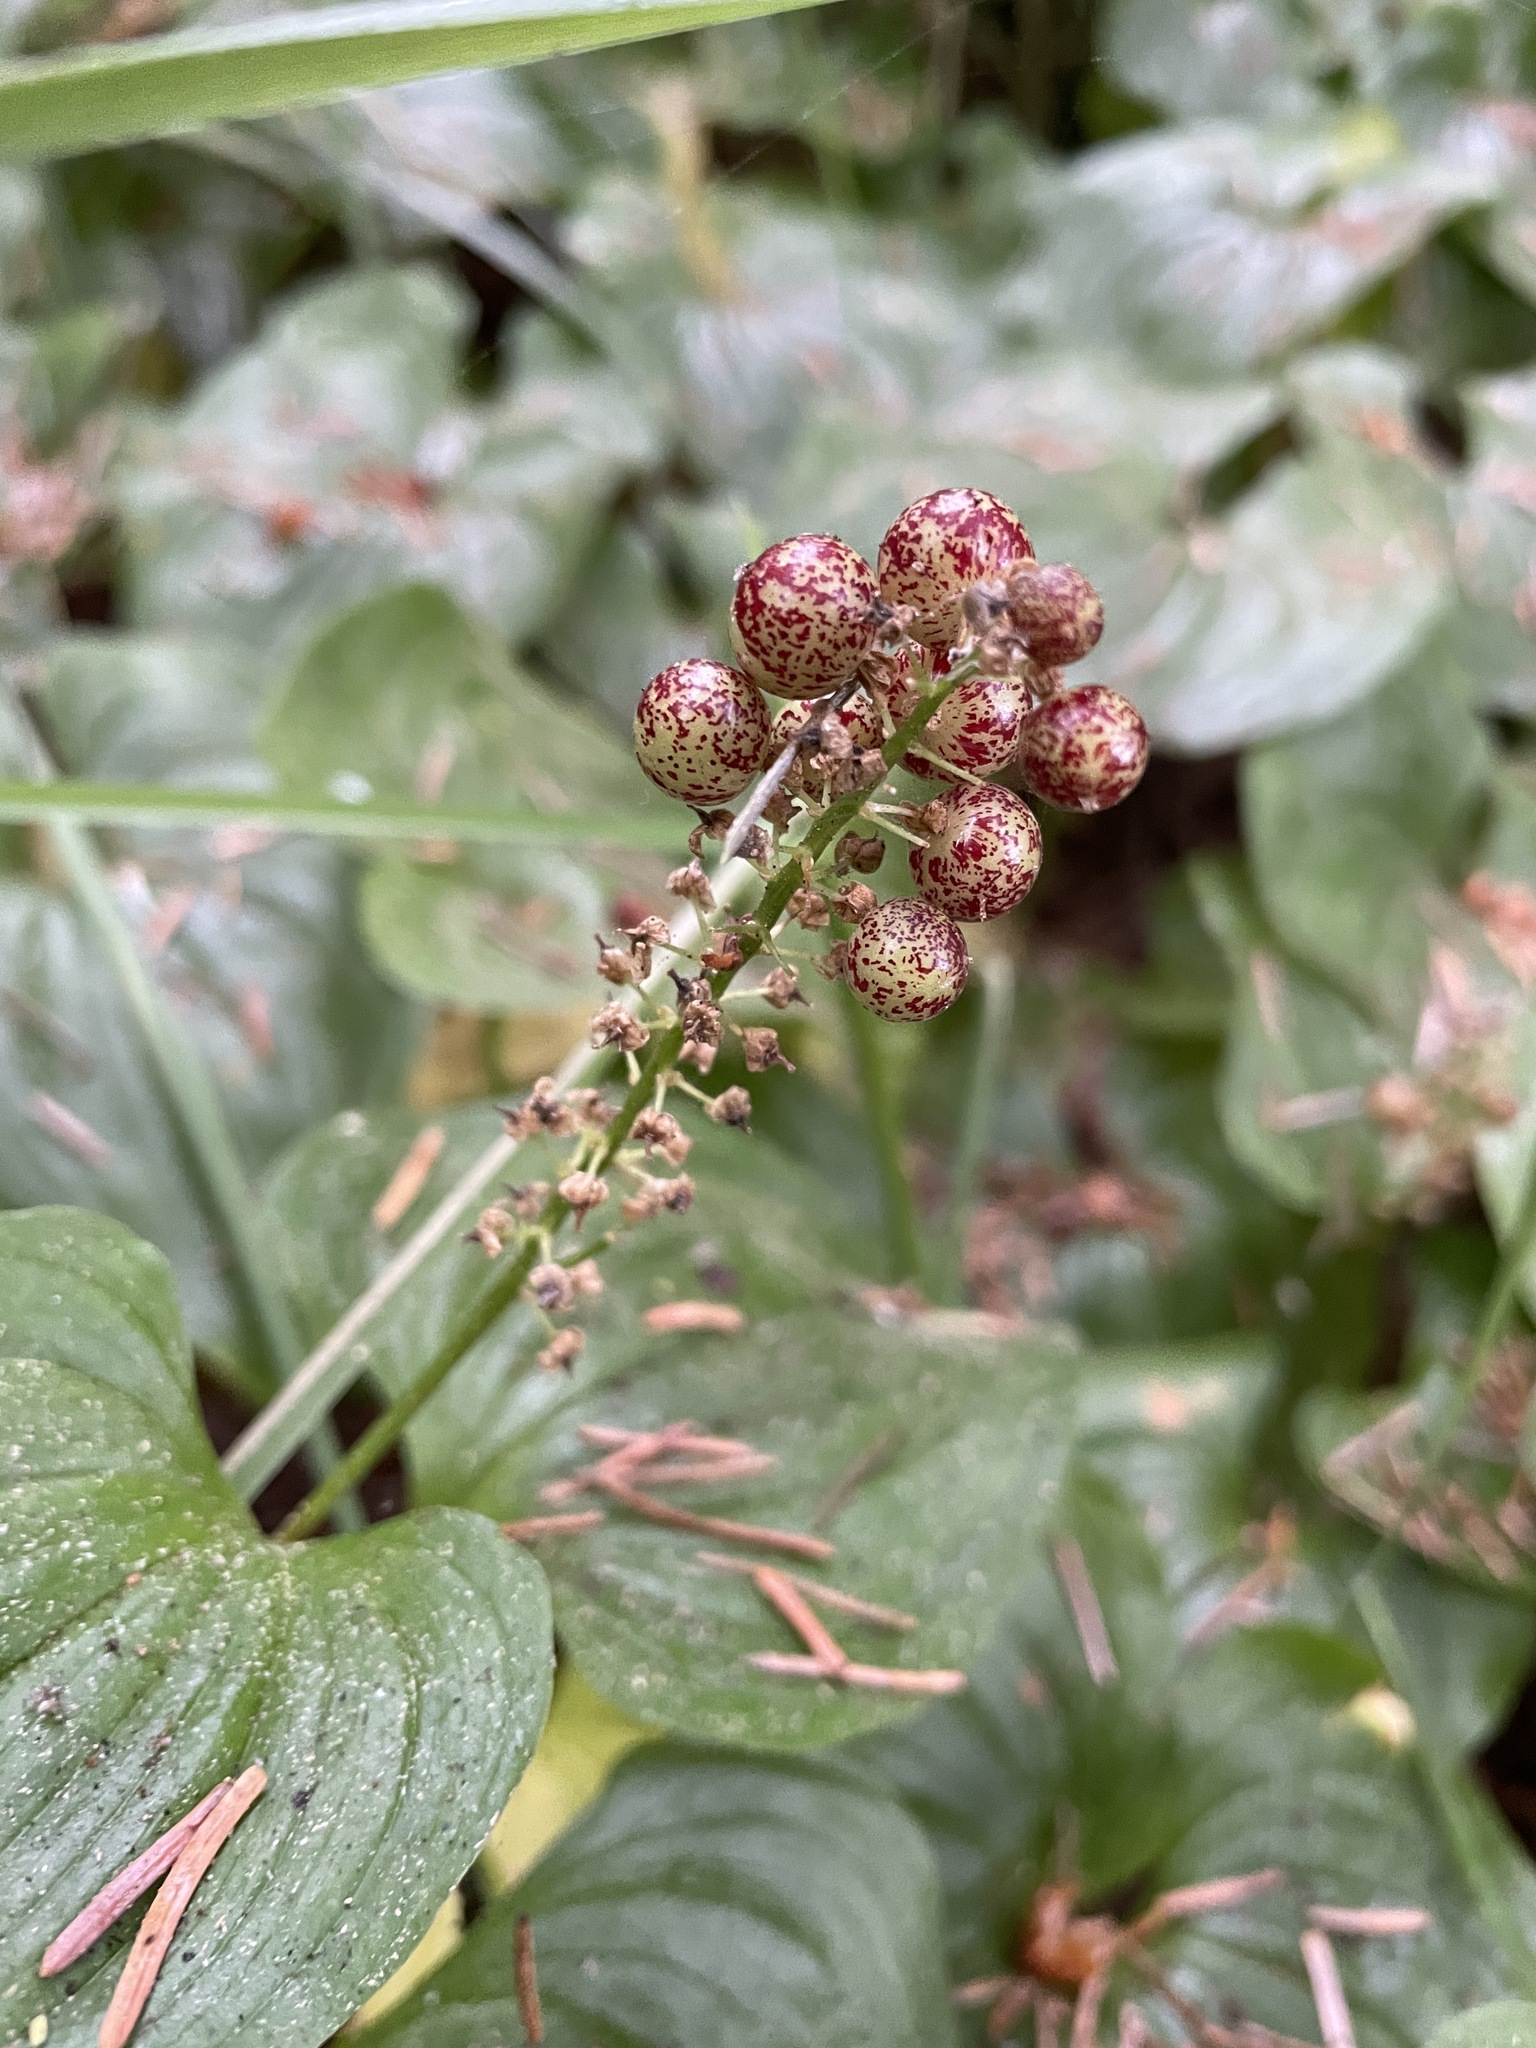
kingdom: Plantae
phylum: Tracheophyta
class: Liliopsida
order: Asparagales
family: Asparagaceae
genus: Maianthemum
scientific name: Maianthemum dilatatum
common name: False lily-of-the-valley
